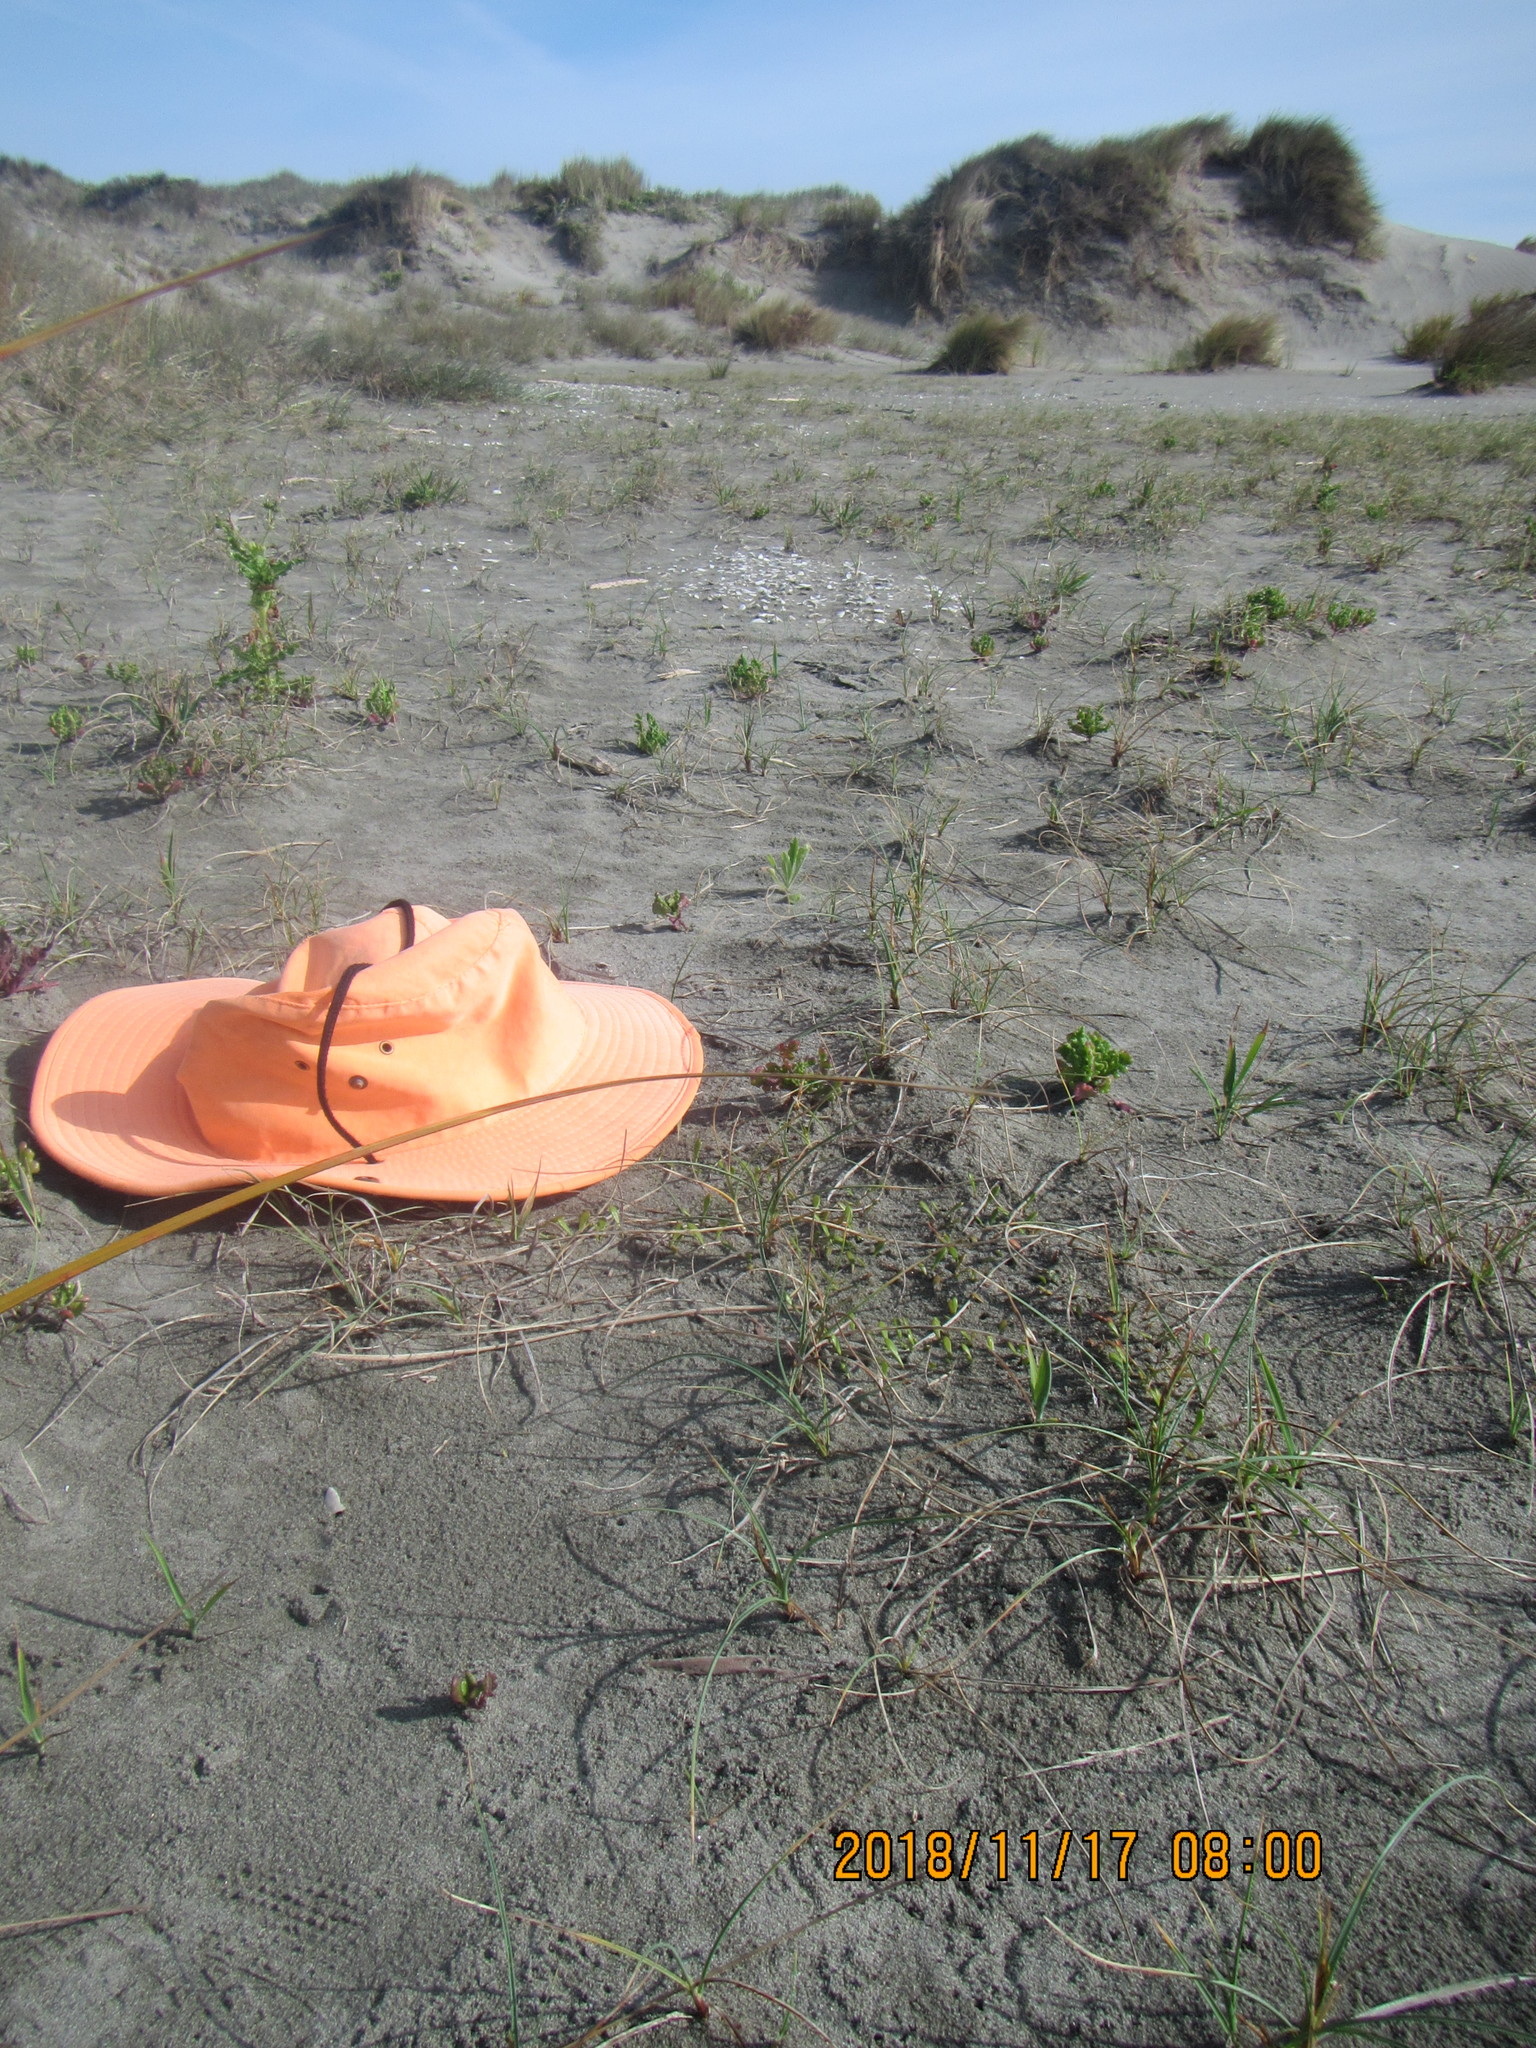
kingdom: Plantae
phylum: Tracheophyta
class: Magnoliopsida
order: Asterales
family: Goodeniaceae
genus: Goodenia
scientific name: Goodenia radicans
